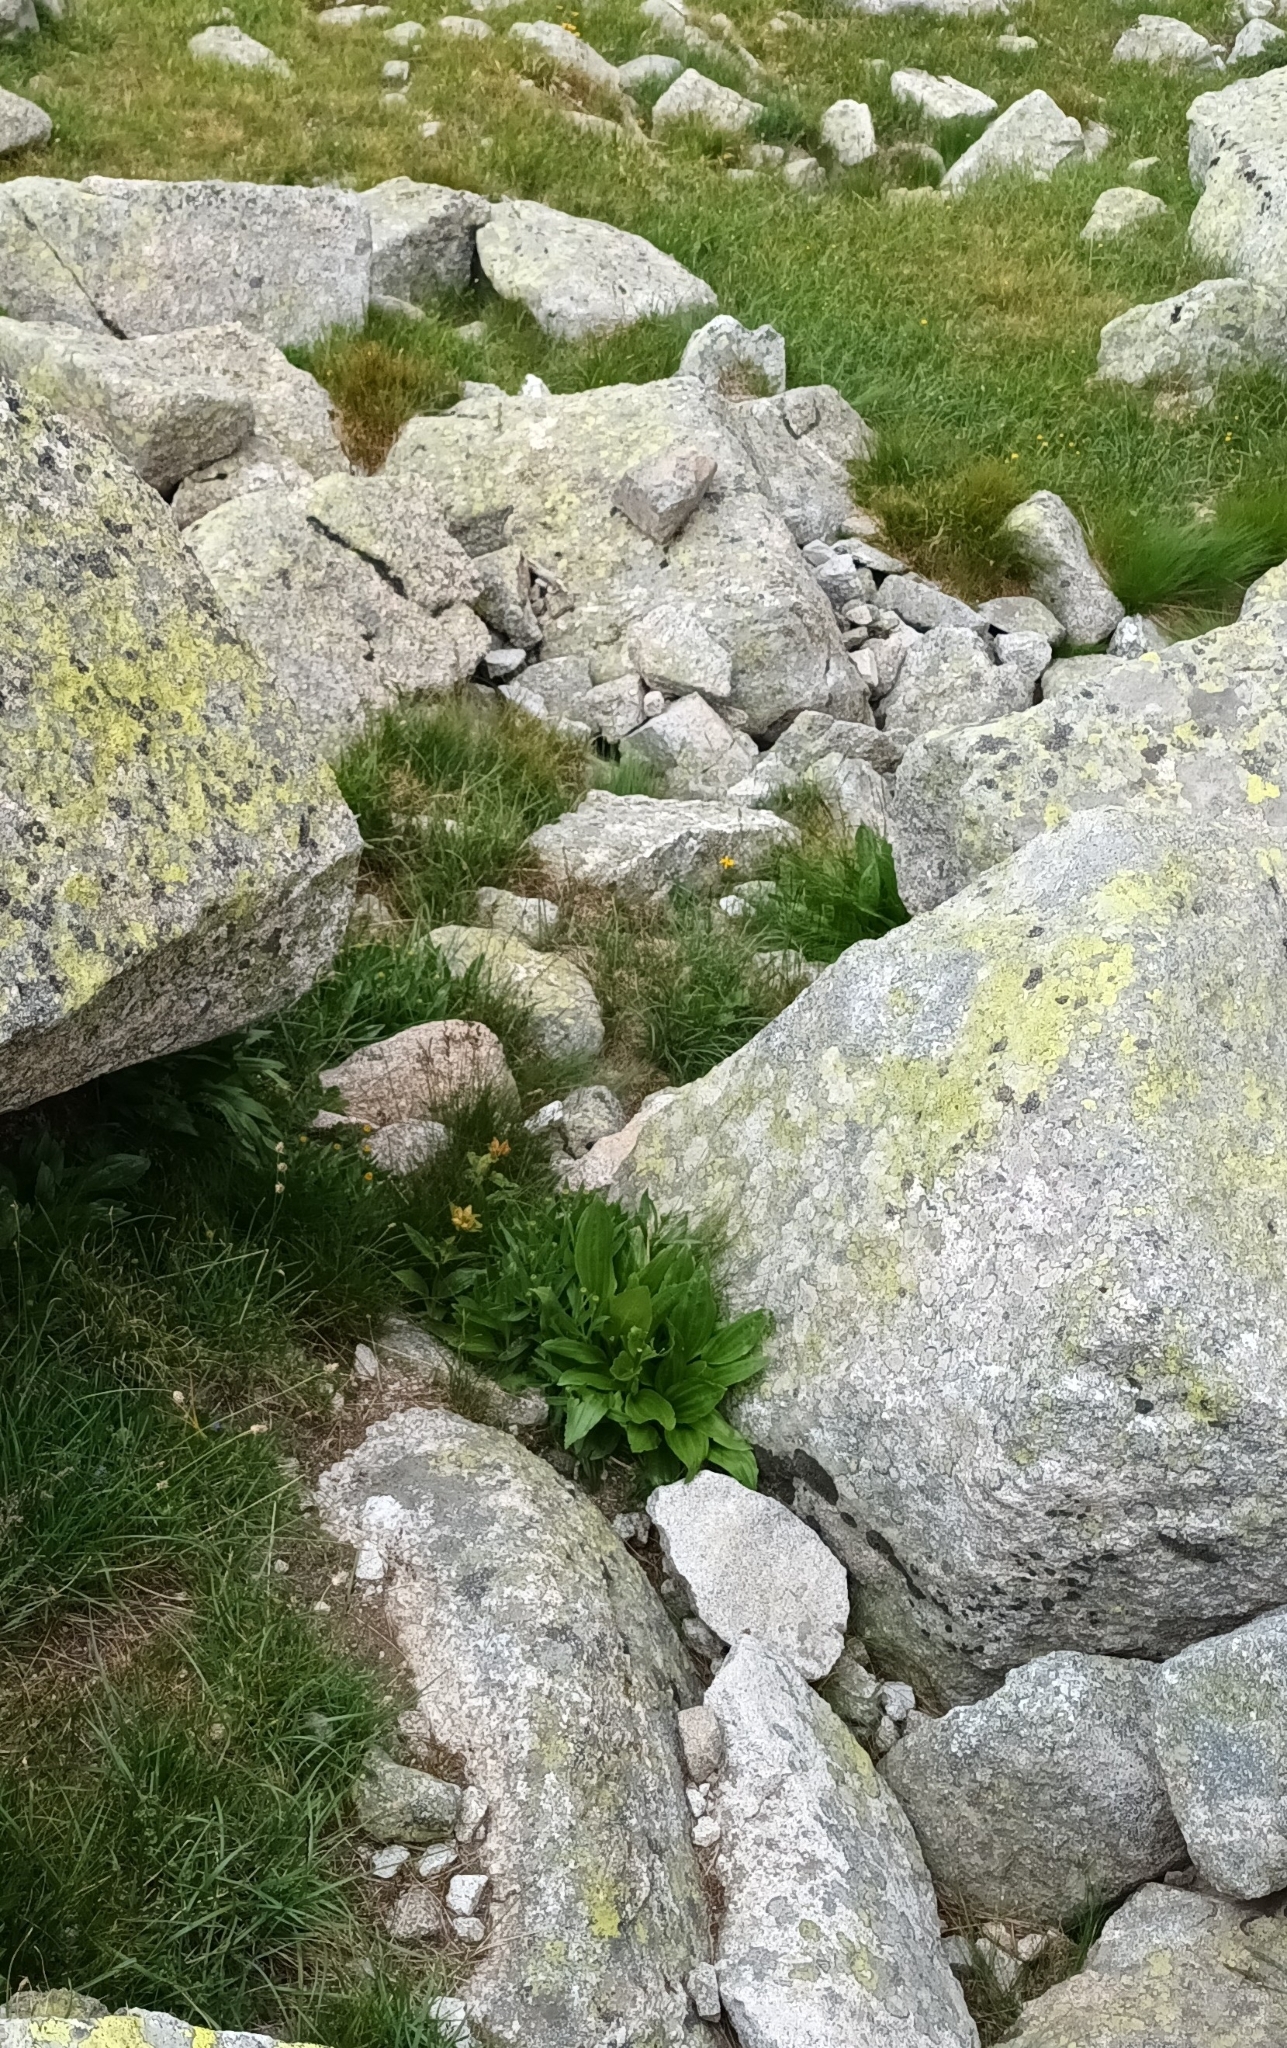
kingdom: Plantae
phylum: Tracheophyta
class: Magnoliopsida
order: Gentianales
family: Gentianaceae
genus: Gentiana
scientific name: Gentiana punctata
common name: Spotted gentian
